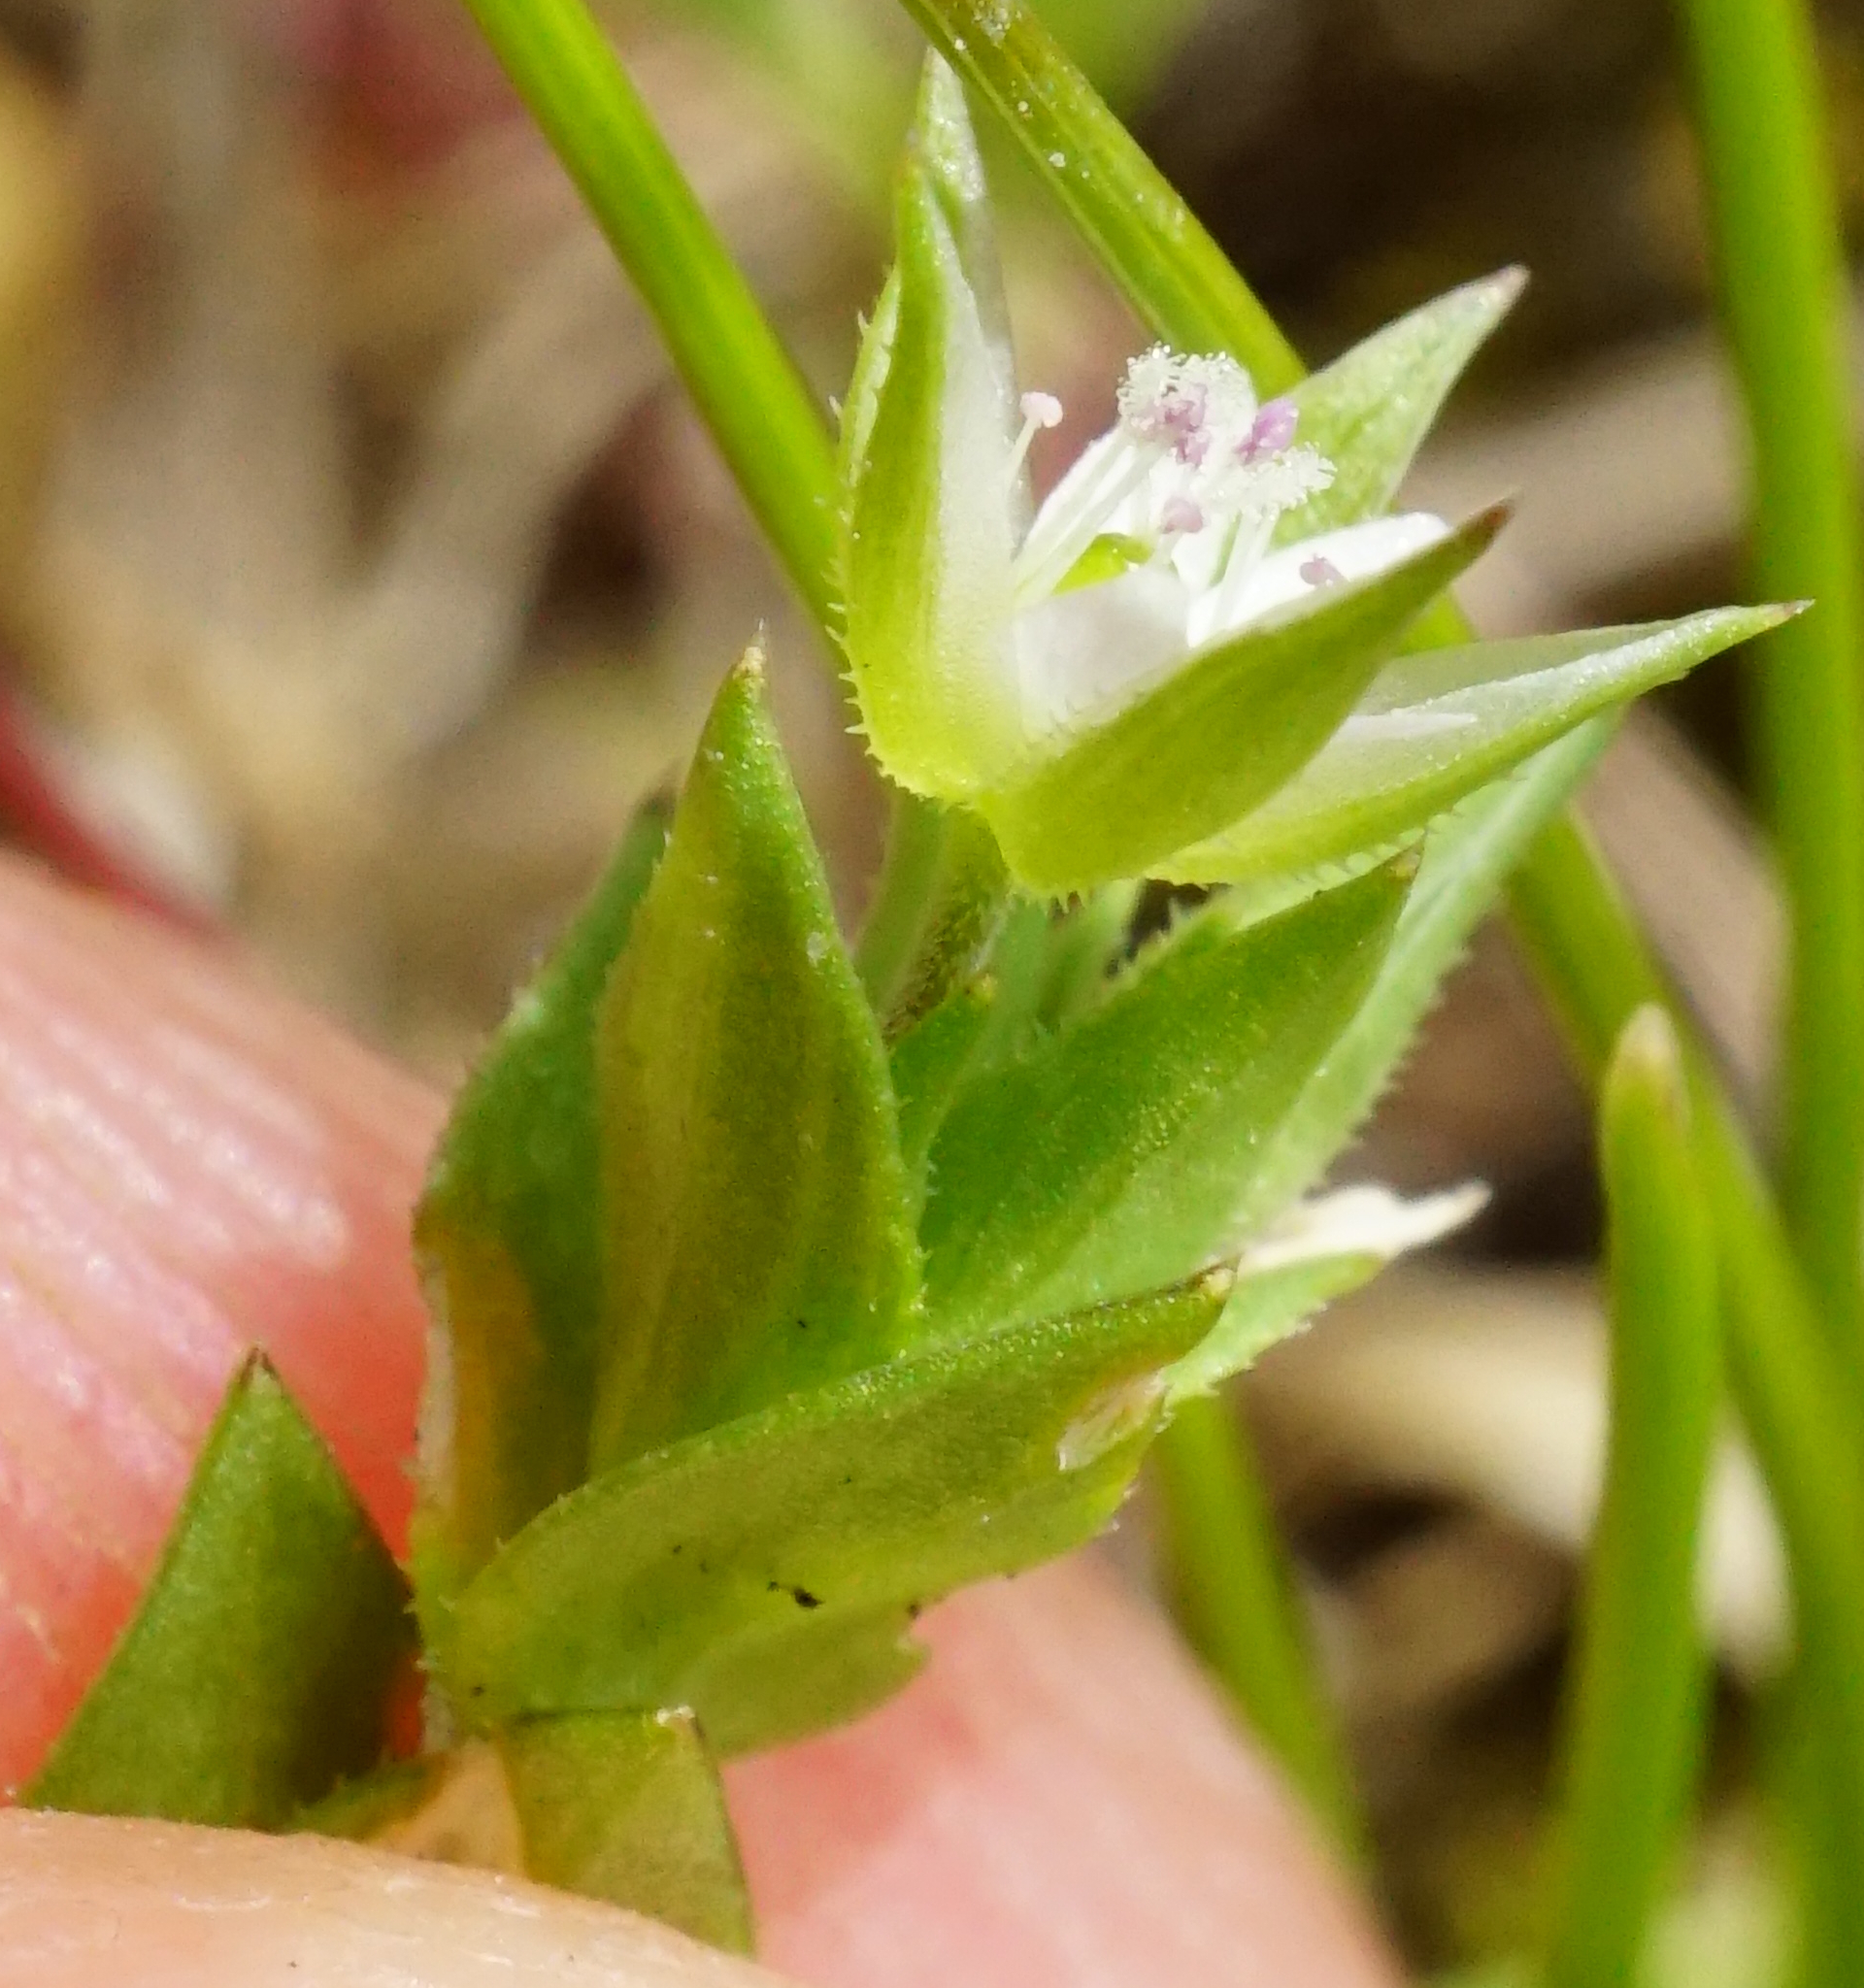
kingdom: Plantae
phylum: Tracheophyta
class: Magnoliopsida
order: Caryophyllales
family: Caryophyllaceae
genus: Arenaria
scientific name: Arenaria serpyllifolia
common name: Thyme-leaved sandwort
